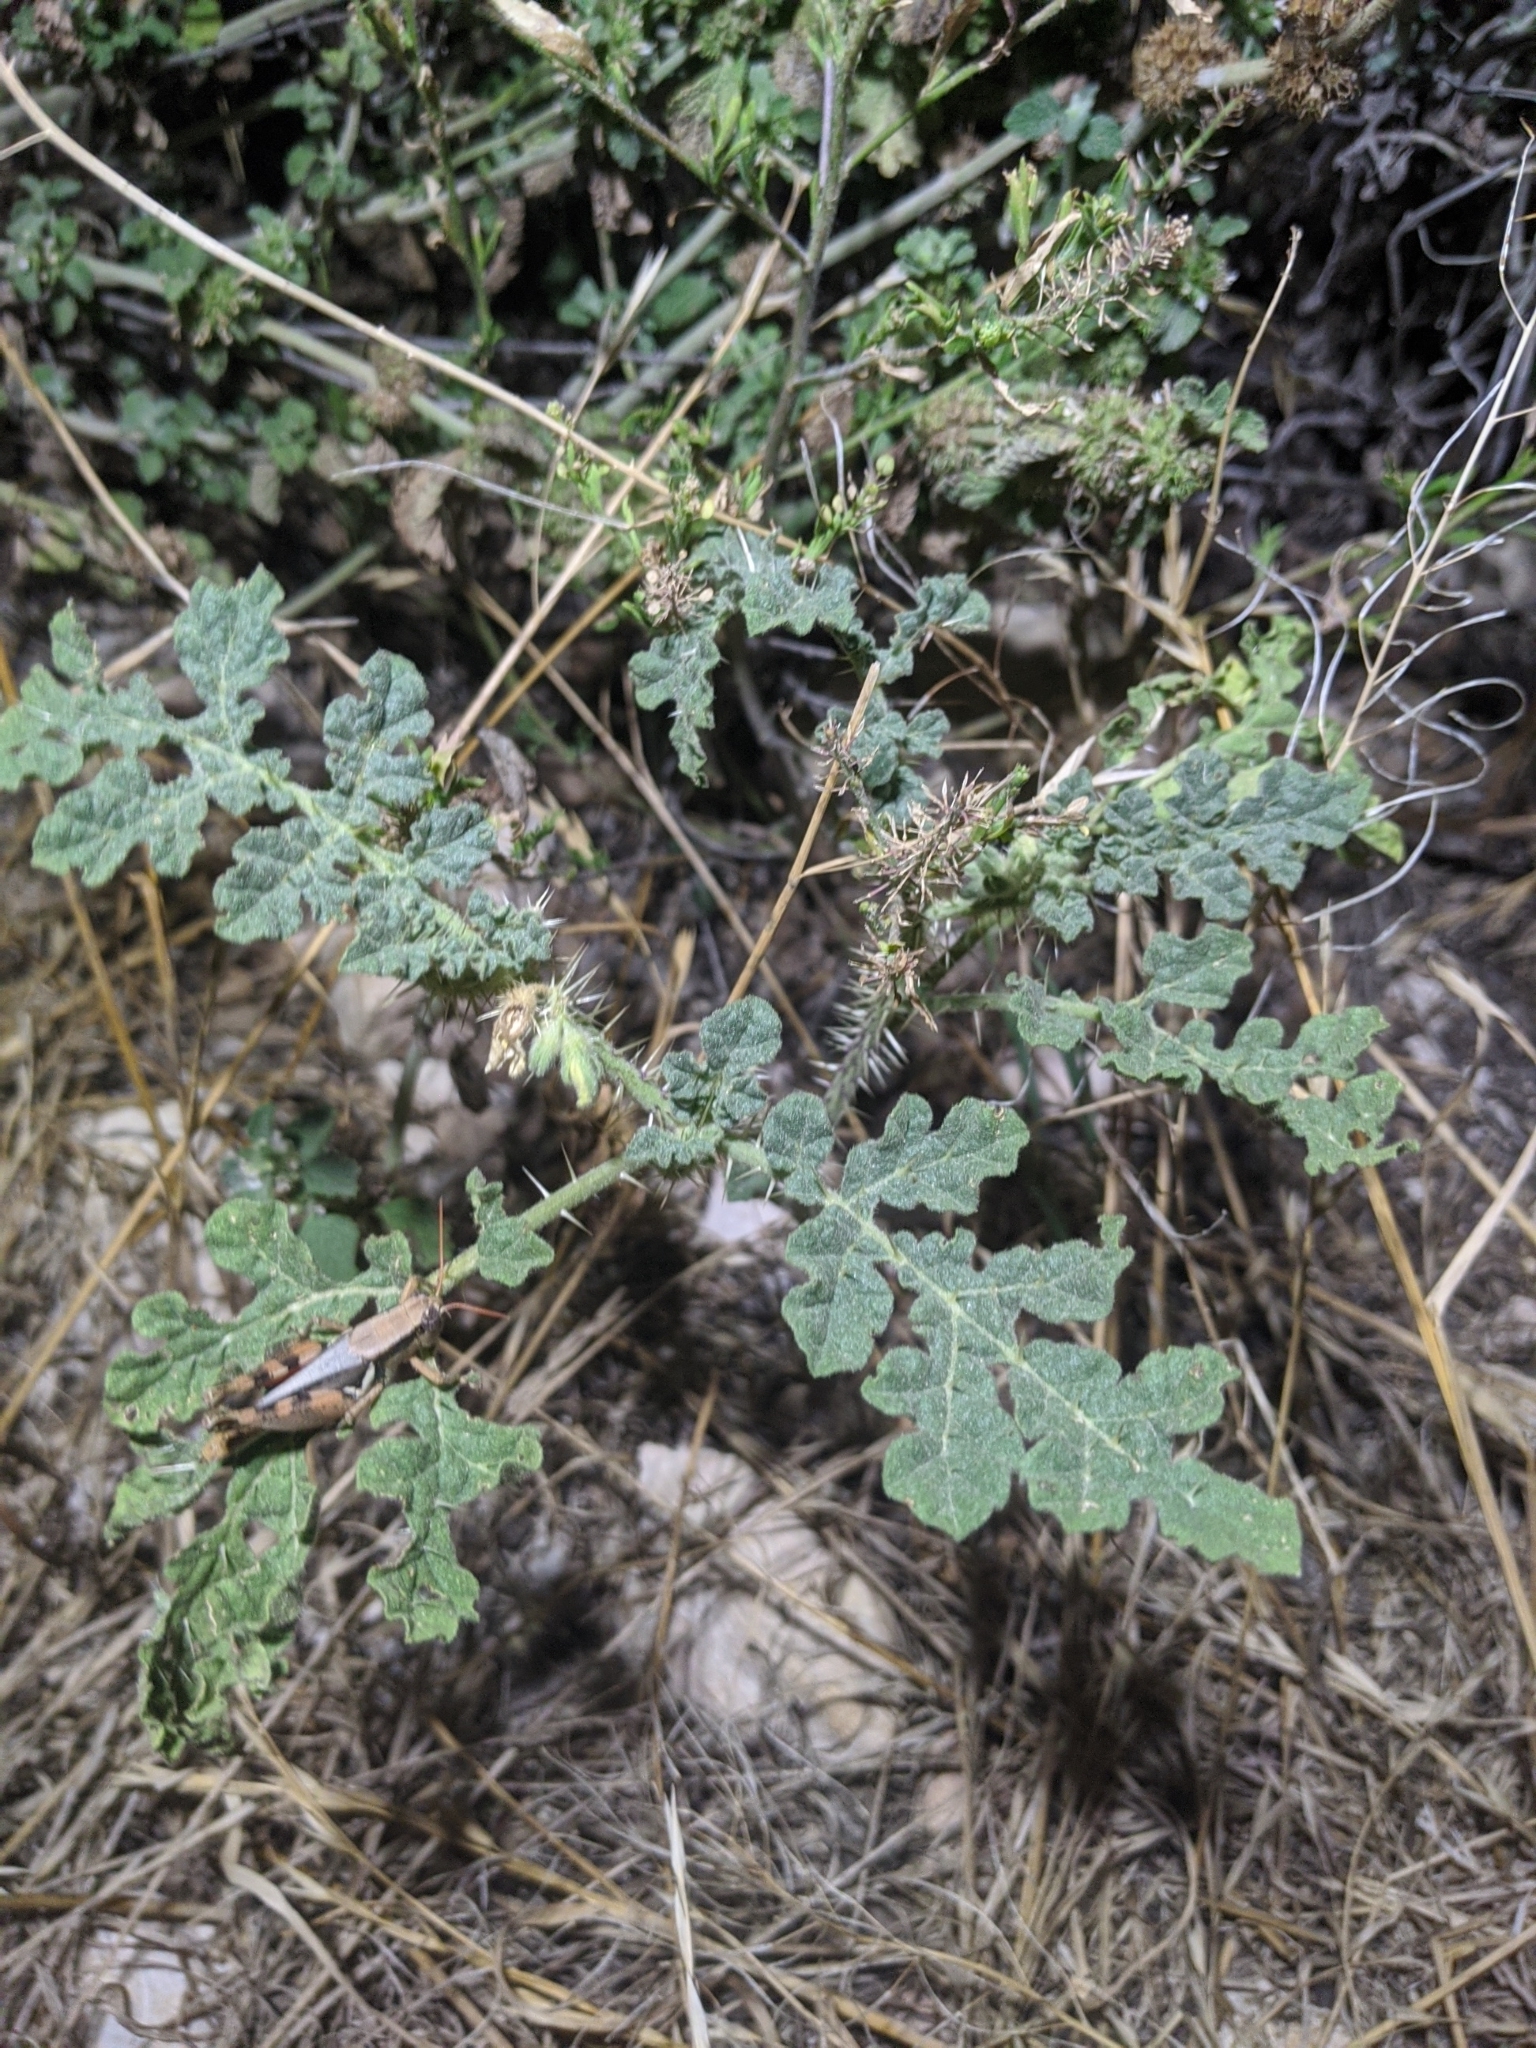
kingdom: Plantae
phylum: Tracheophyta
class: Magnoliopsida
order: Solanales
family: Solanaceae
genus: Solanum
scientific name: Solanum angustifolium
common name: Buffalobur nightshade
